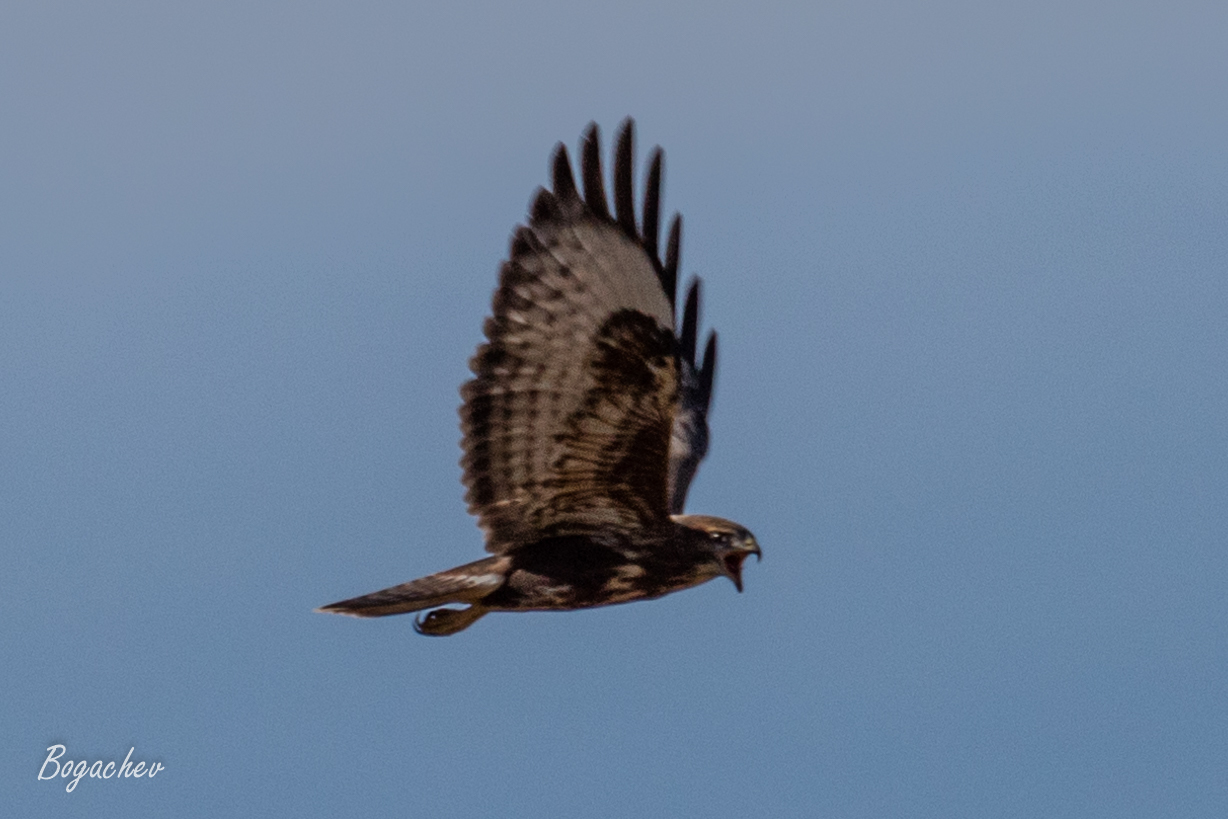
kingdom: Animalia
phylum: Chordata
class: Aves
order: Accipitriformes
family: Accipitridae
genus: Buteo
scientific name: Buteo buteo
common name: Common buzzard
